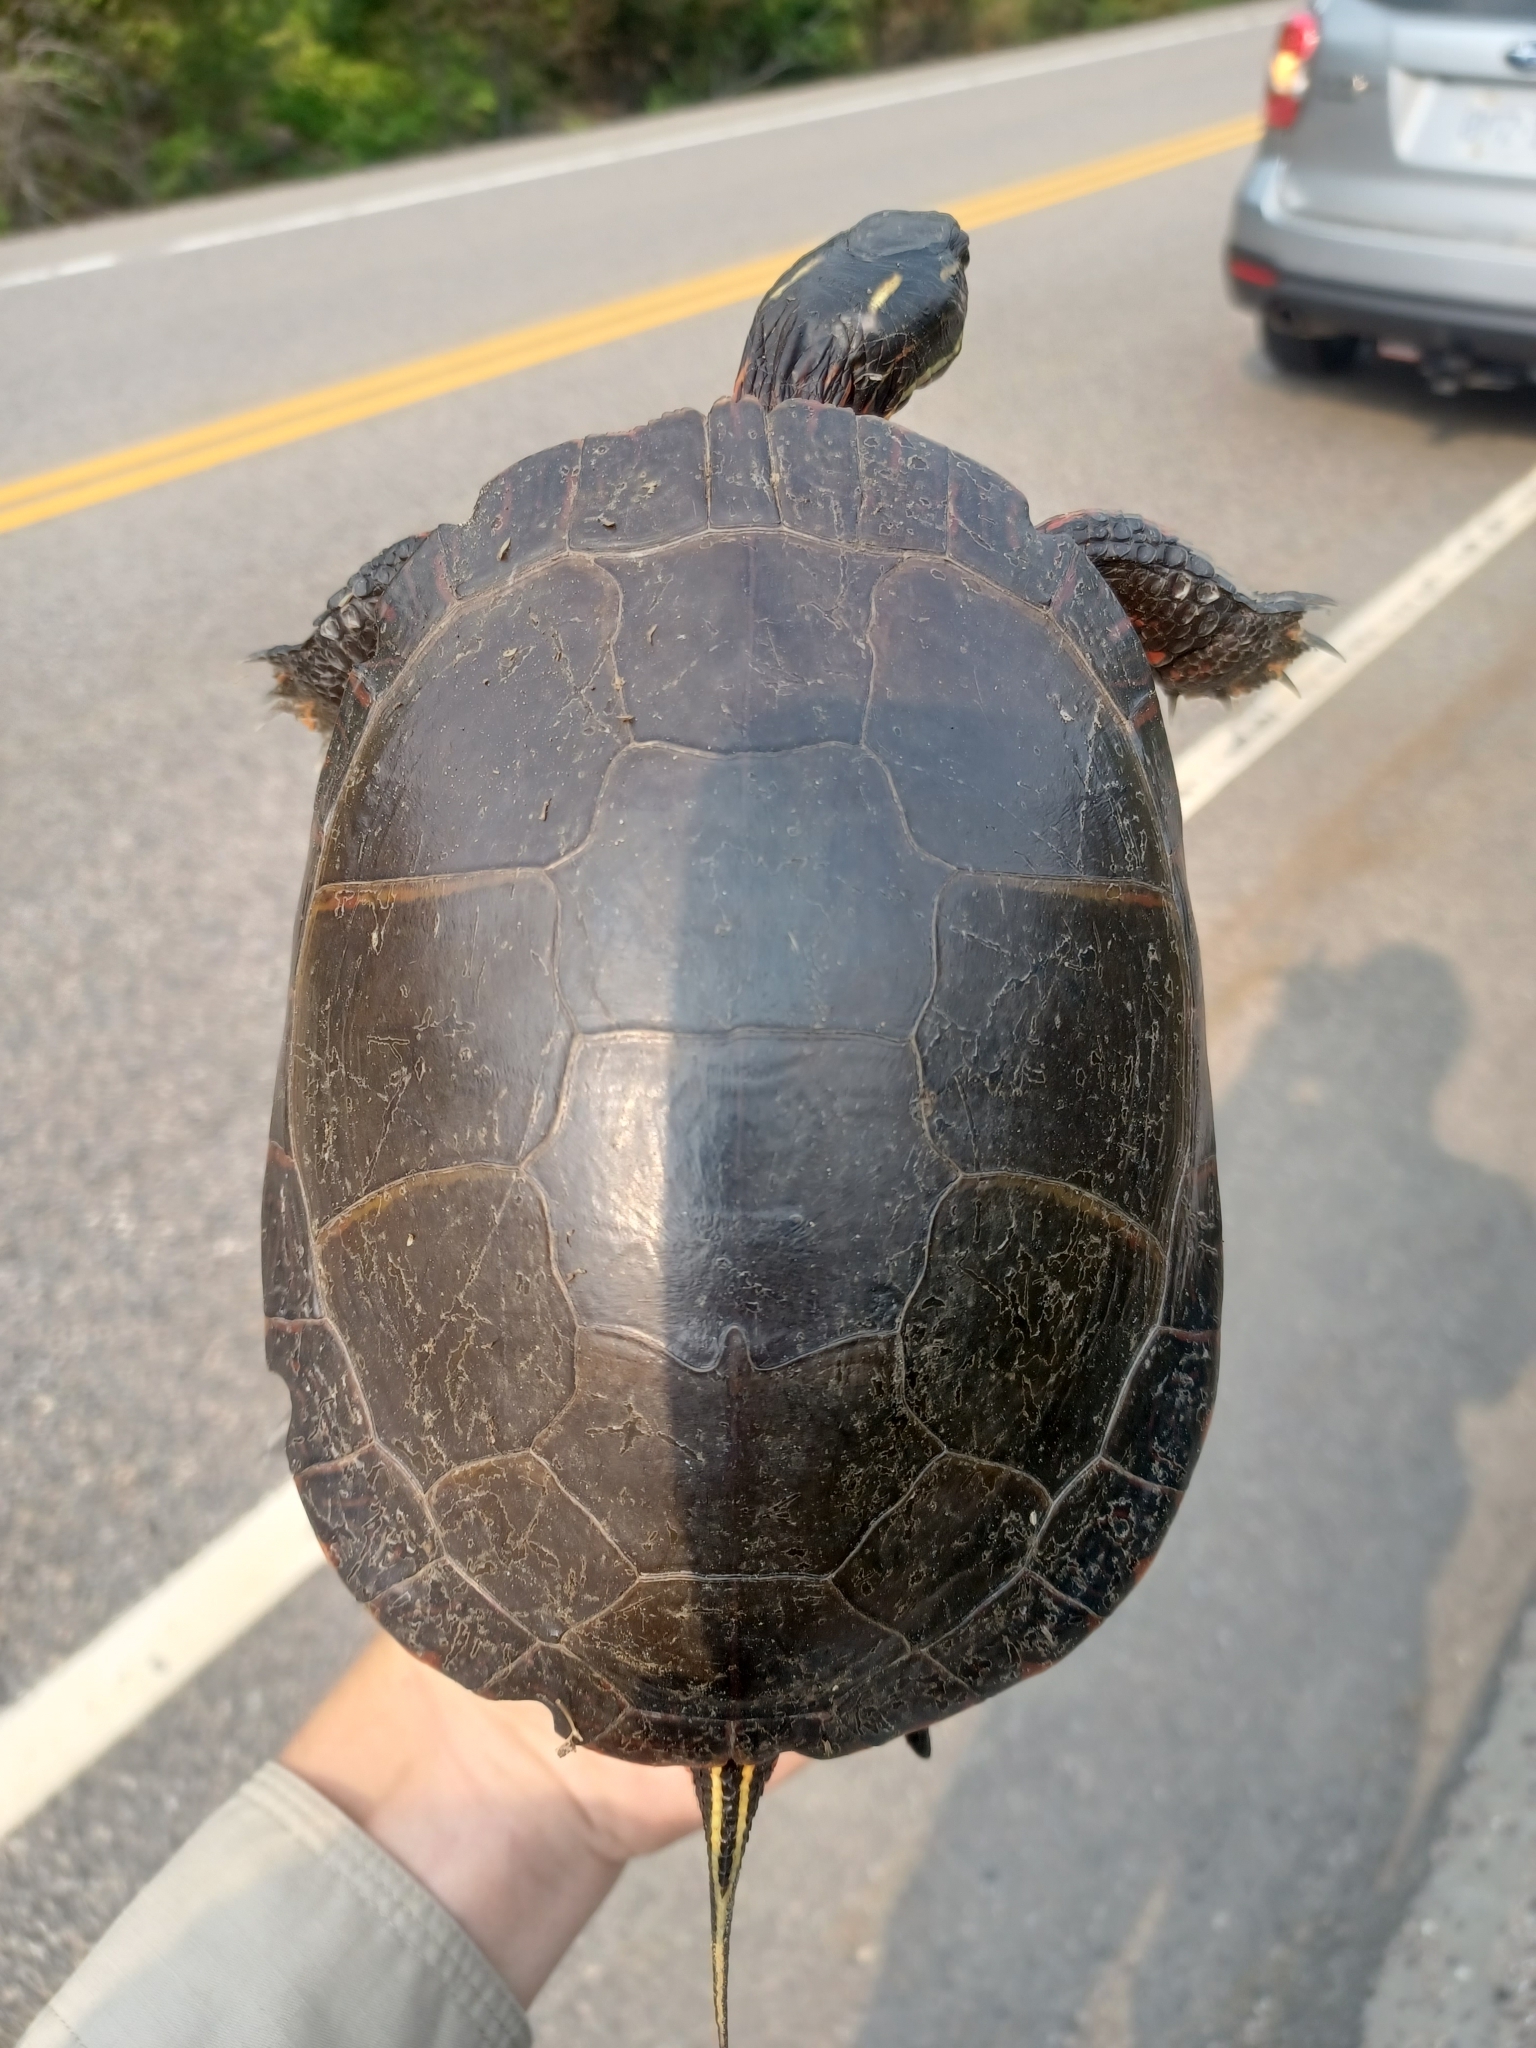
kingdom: Animalia
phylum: Chordata
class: Testudines
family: Emydidae
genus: Chrysemys
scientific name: Chrysemys picta
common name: Painted turtle
